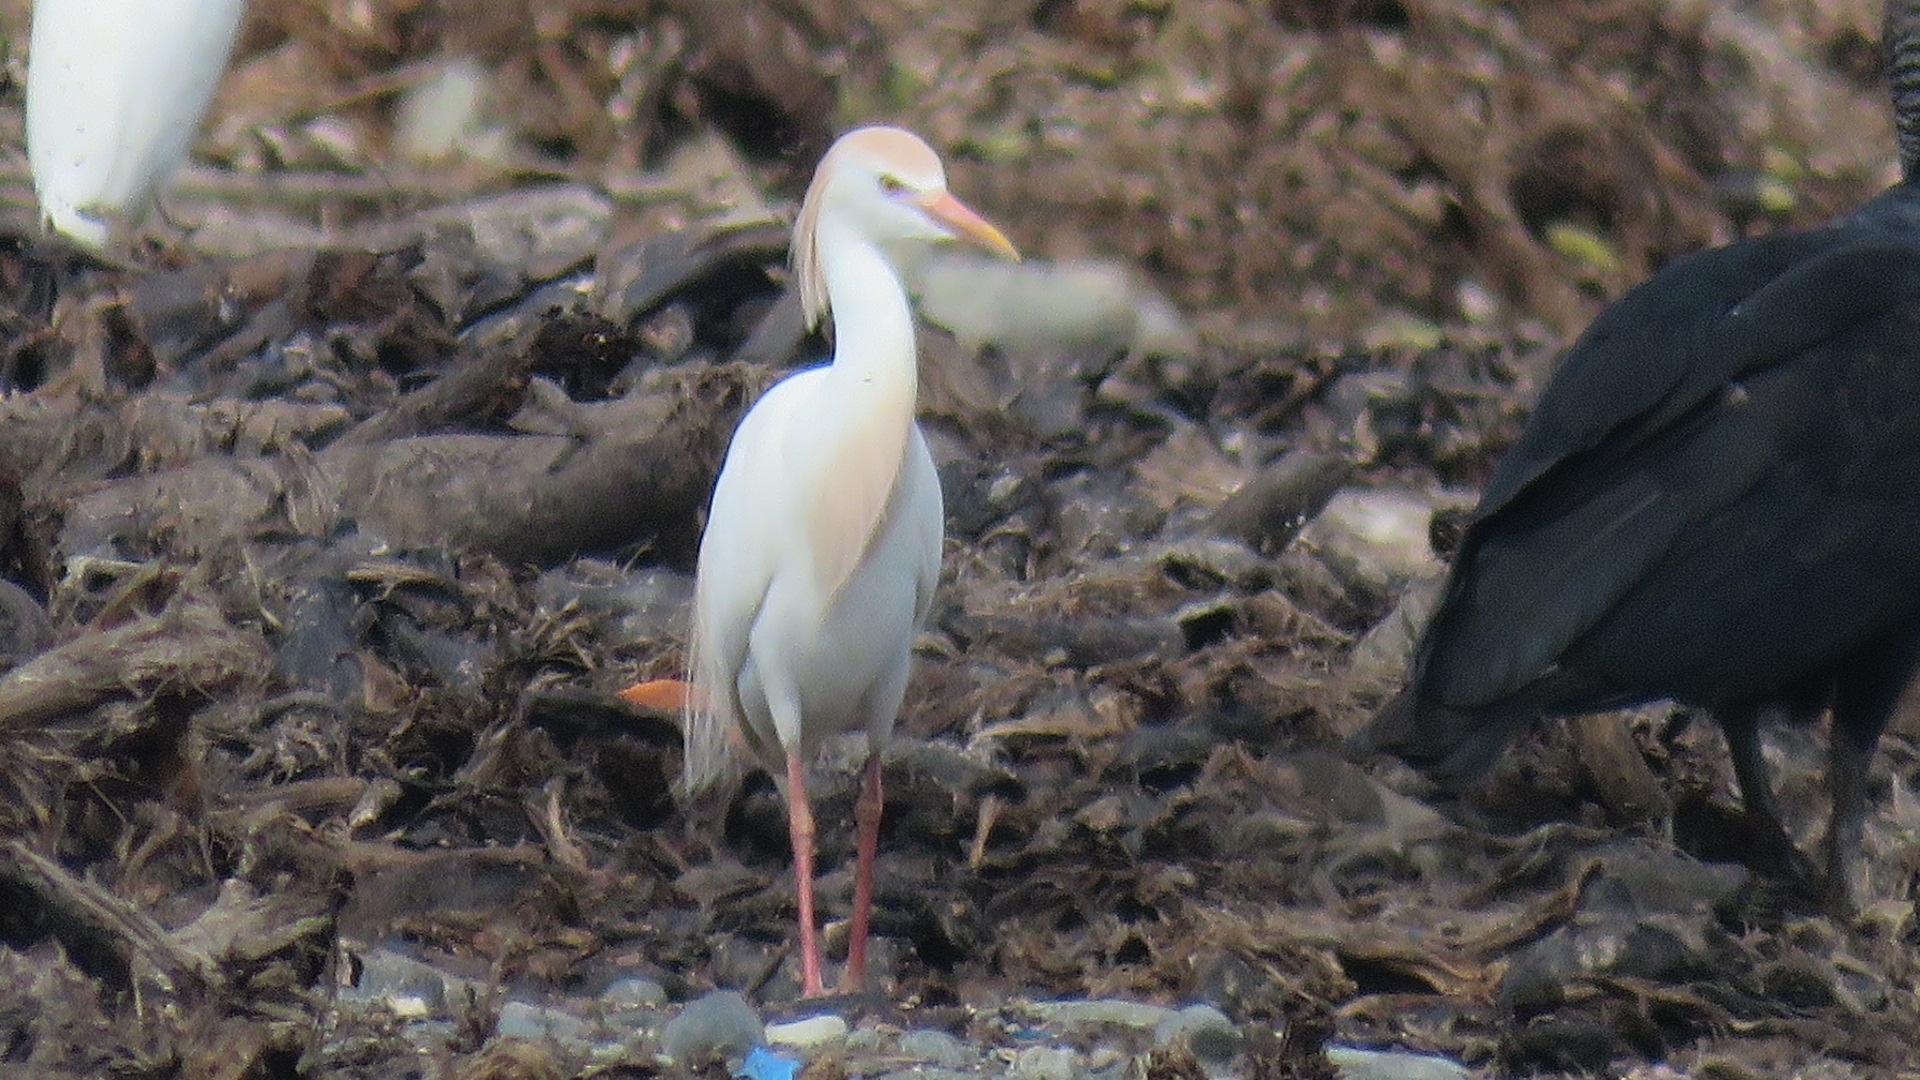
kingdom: Animalia
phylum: Chordata
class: Aves
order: Pelecaniformes
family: Ardeidae
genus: Bubulcus
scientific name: Bubulcus ibis
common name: Cattle egret
